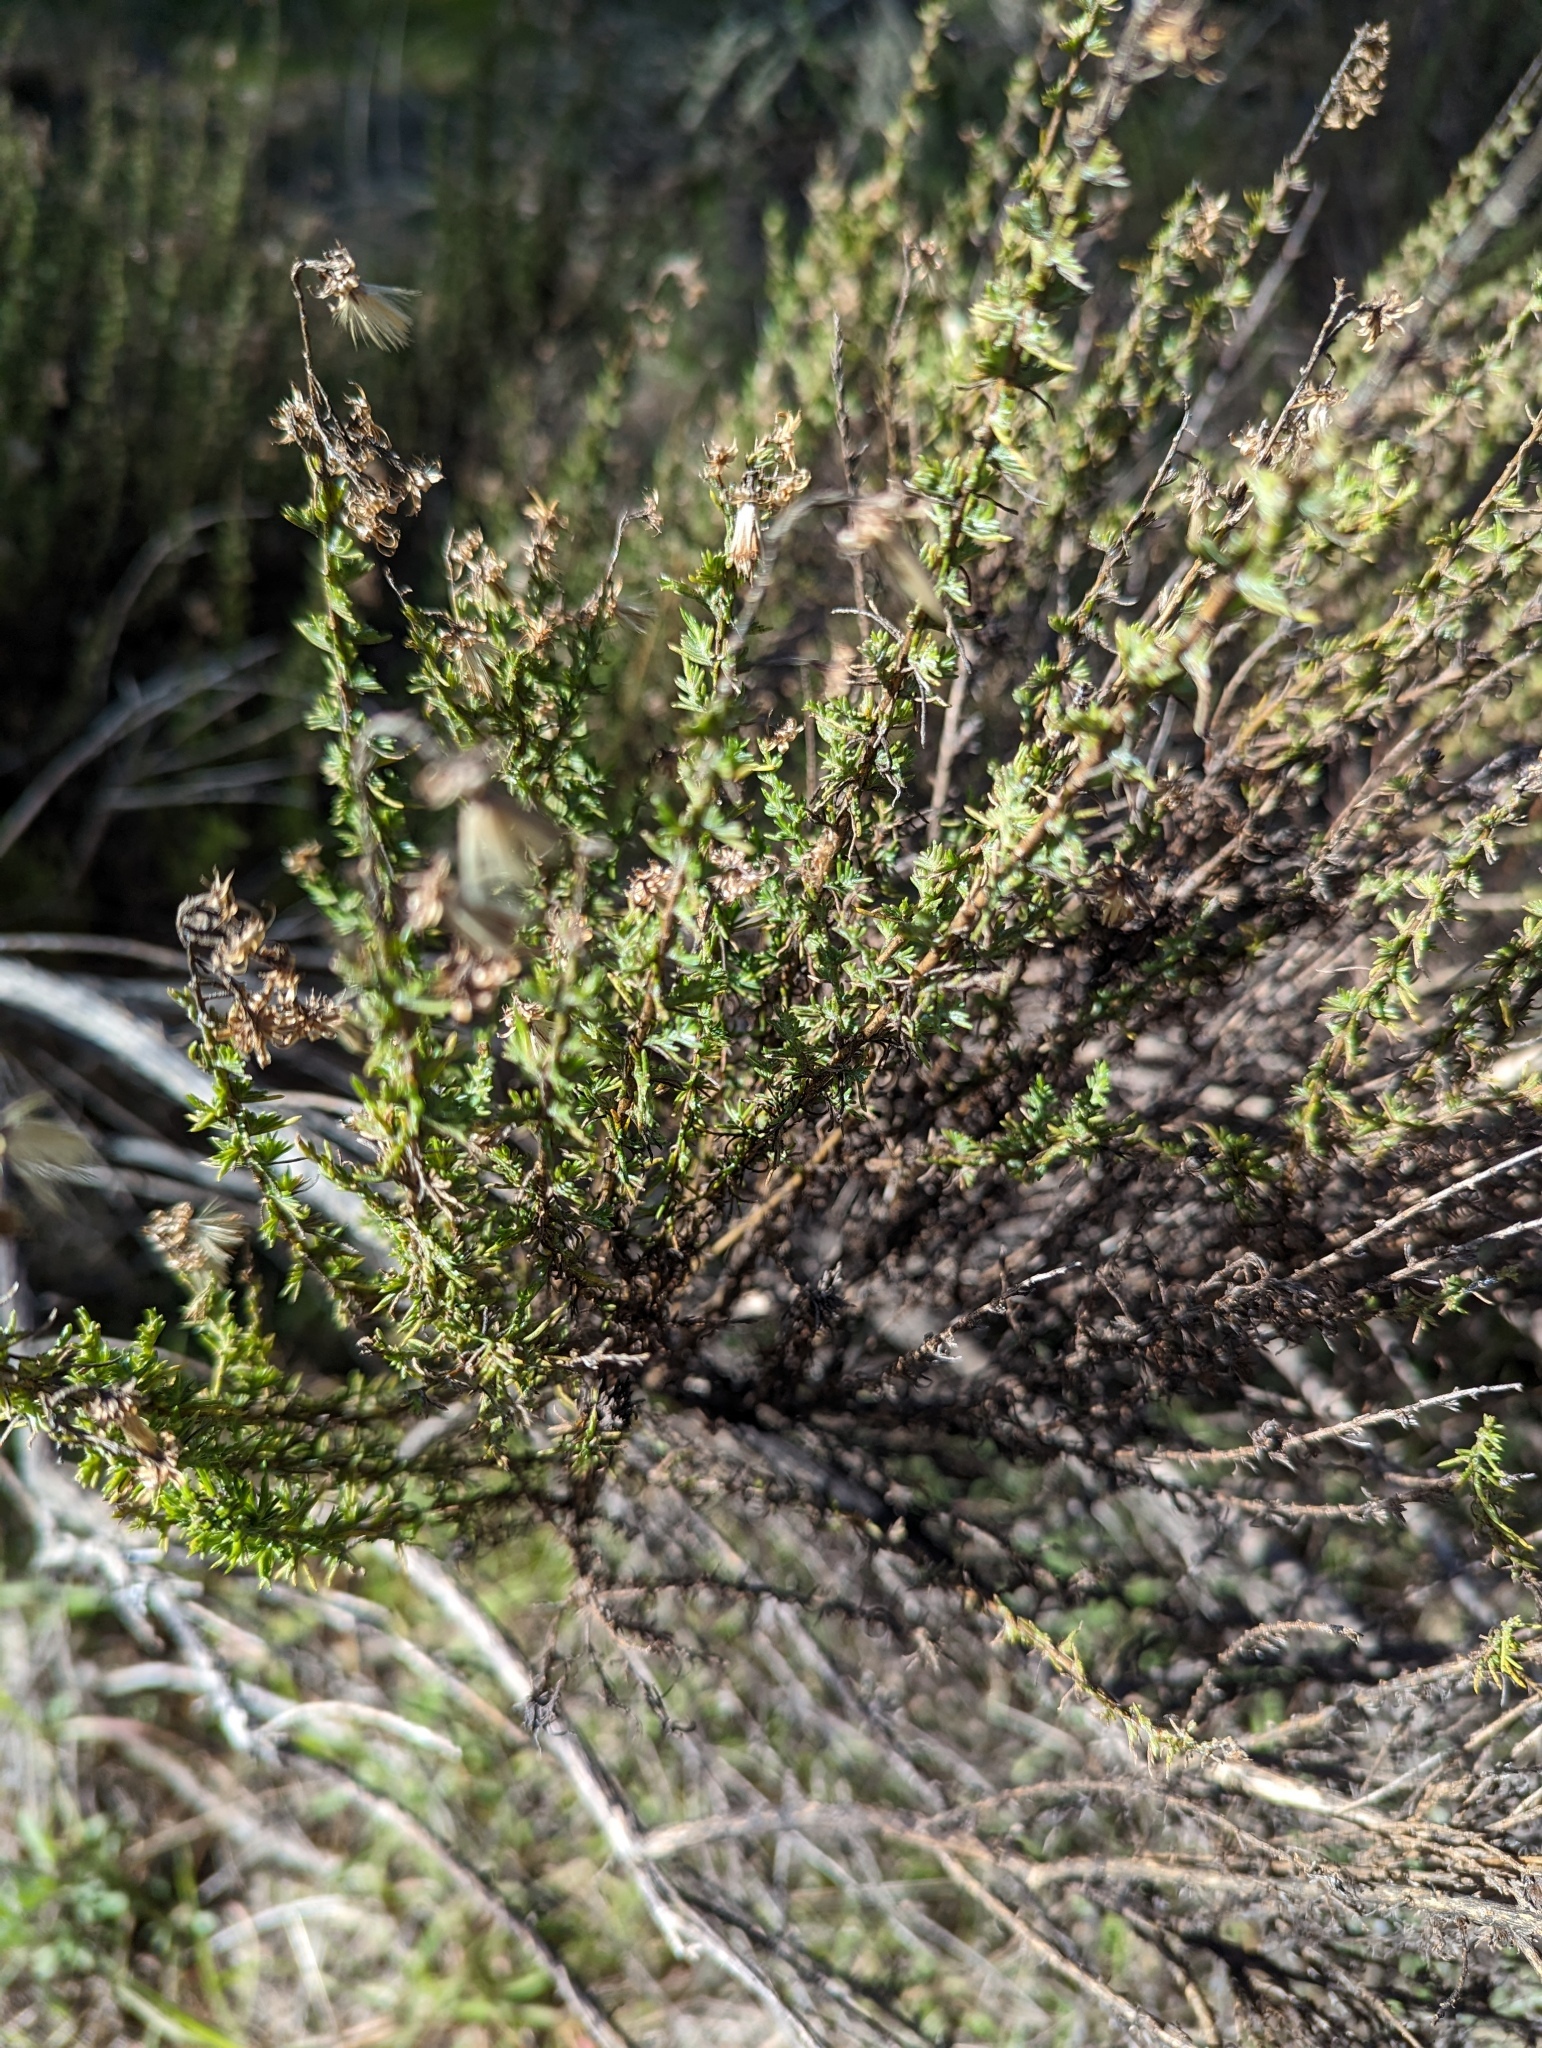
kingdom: Plantae
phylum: Tracheophyta
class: Magnoliopsida
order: Asterales
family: Asteraceae
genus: Ericameria
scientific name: Ericameria ericoides
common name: California goldenbush
